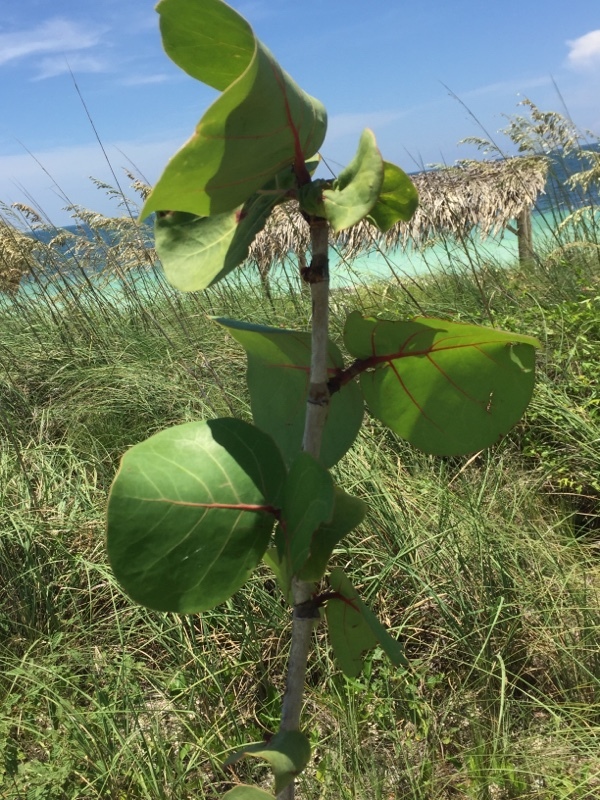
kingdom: Plantae
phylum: Tracheophyta
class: Magnoliopsida
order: Caryophyllales
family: Polygonaceae
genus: Coccoloba
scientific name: Coccoloba uvifera
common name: Seagrape
